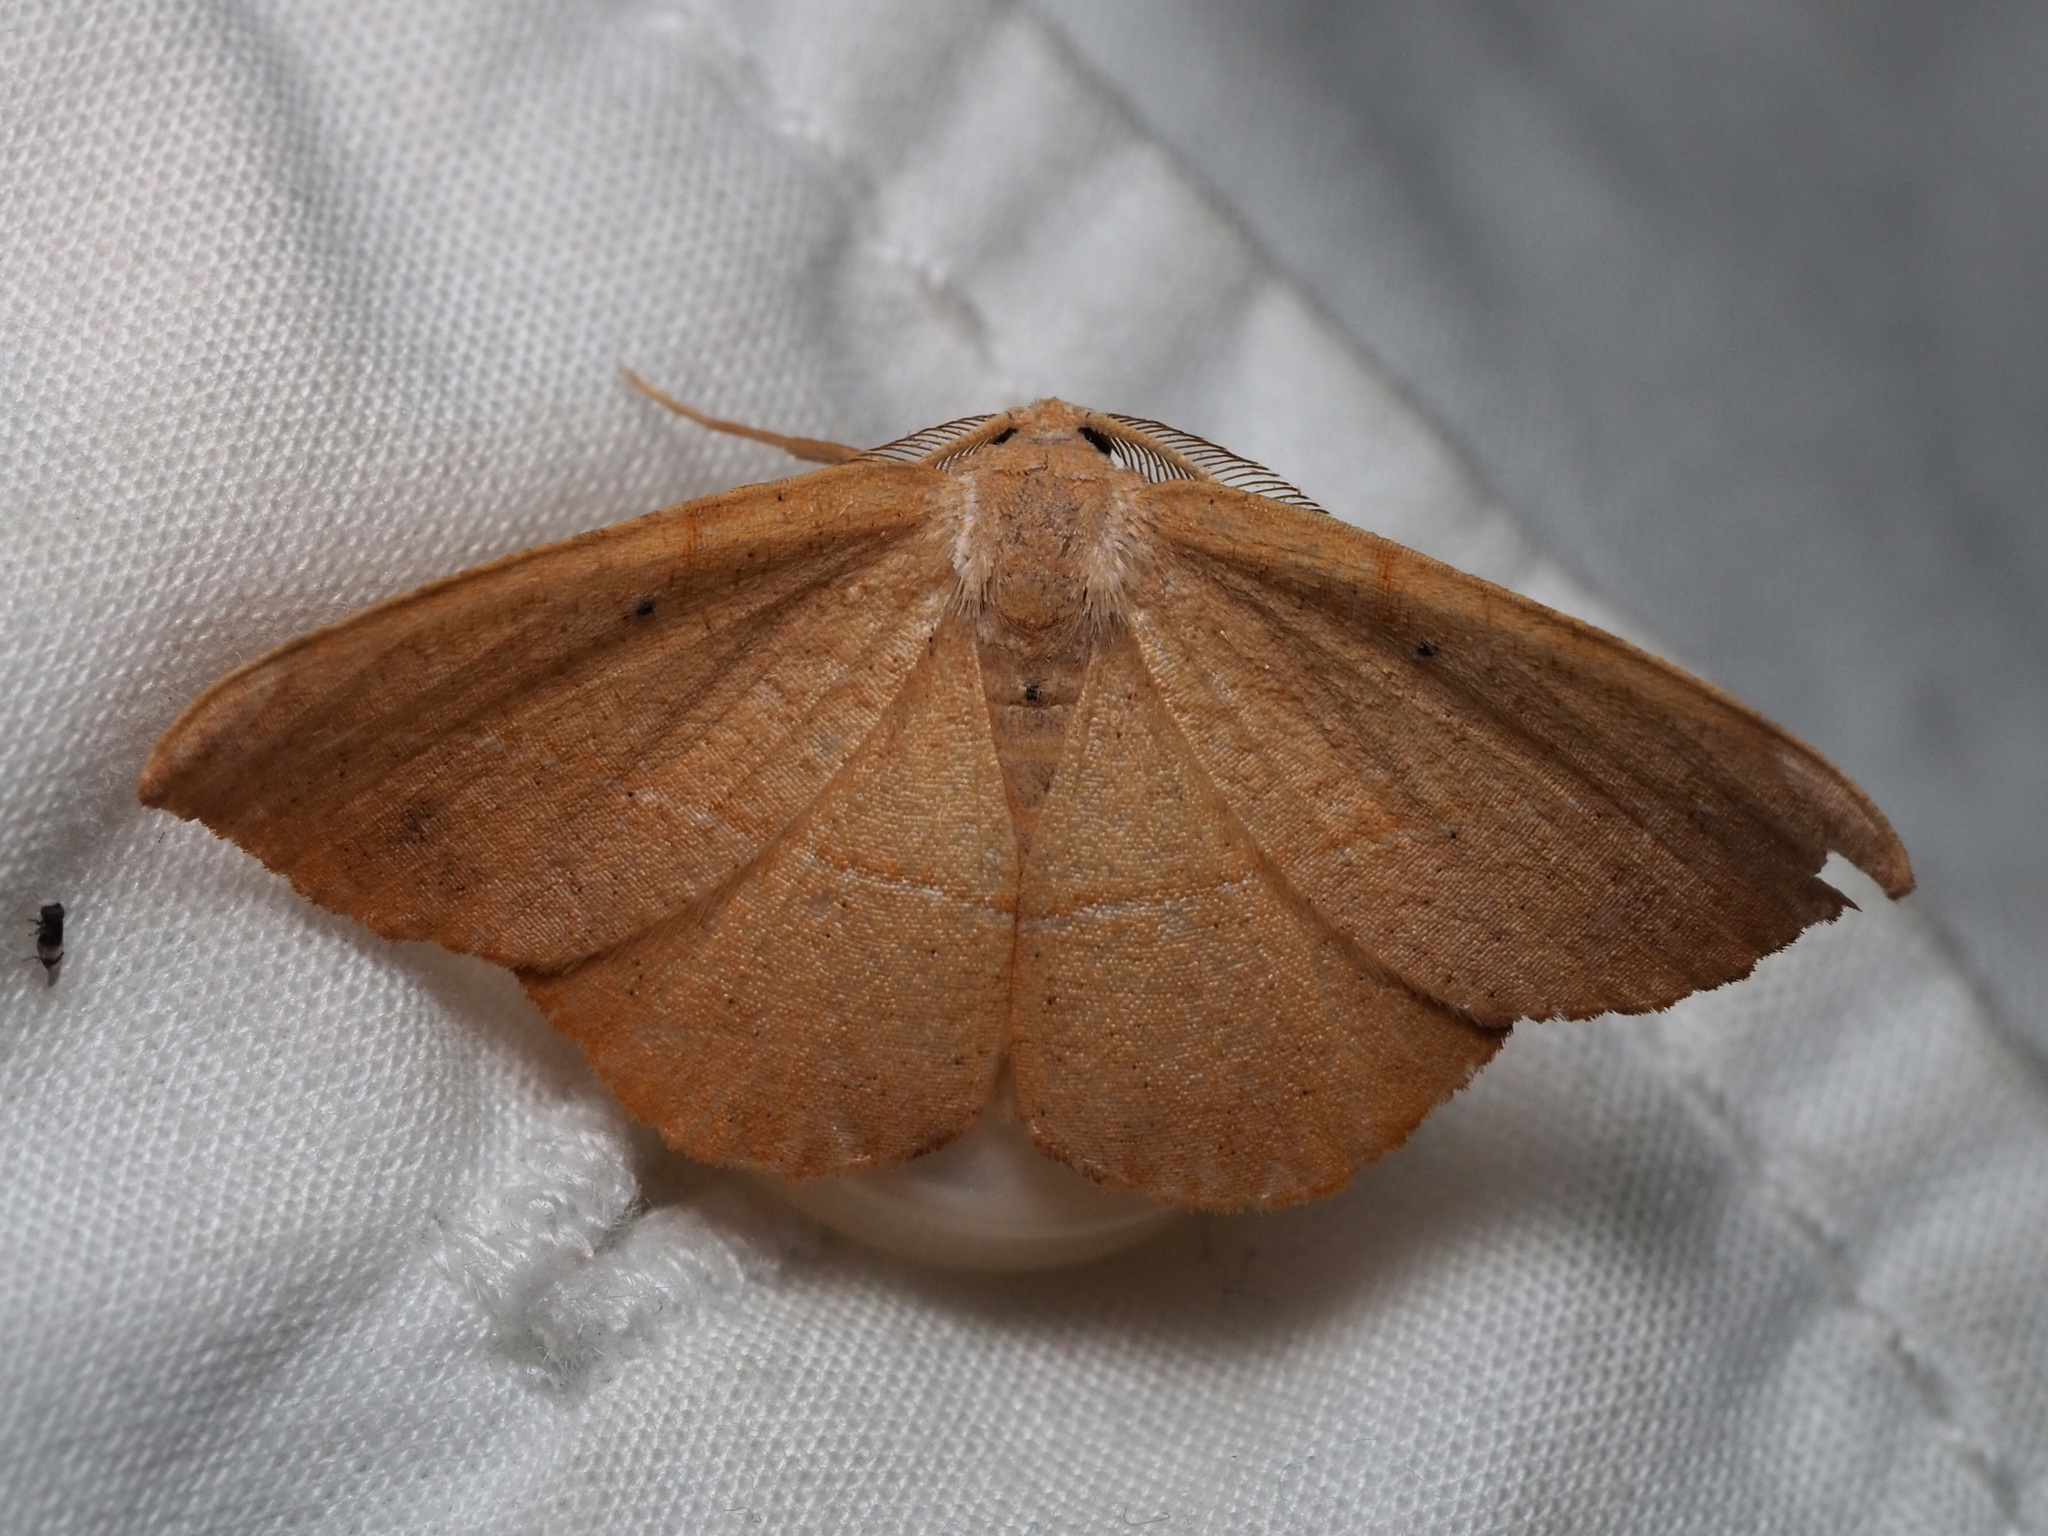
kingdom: Animalia
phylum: Arthropoda
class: Insecta
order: Lepidoptera
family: Geometridae
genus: Patalene
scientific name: Patalene olyzonaria
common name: Juniper geometer moth
